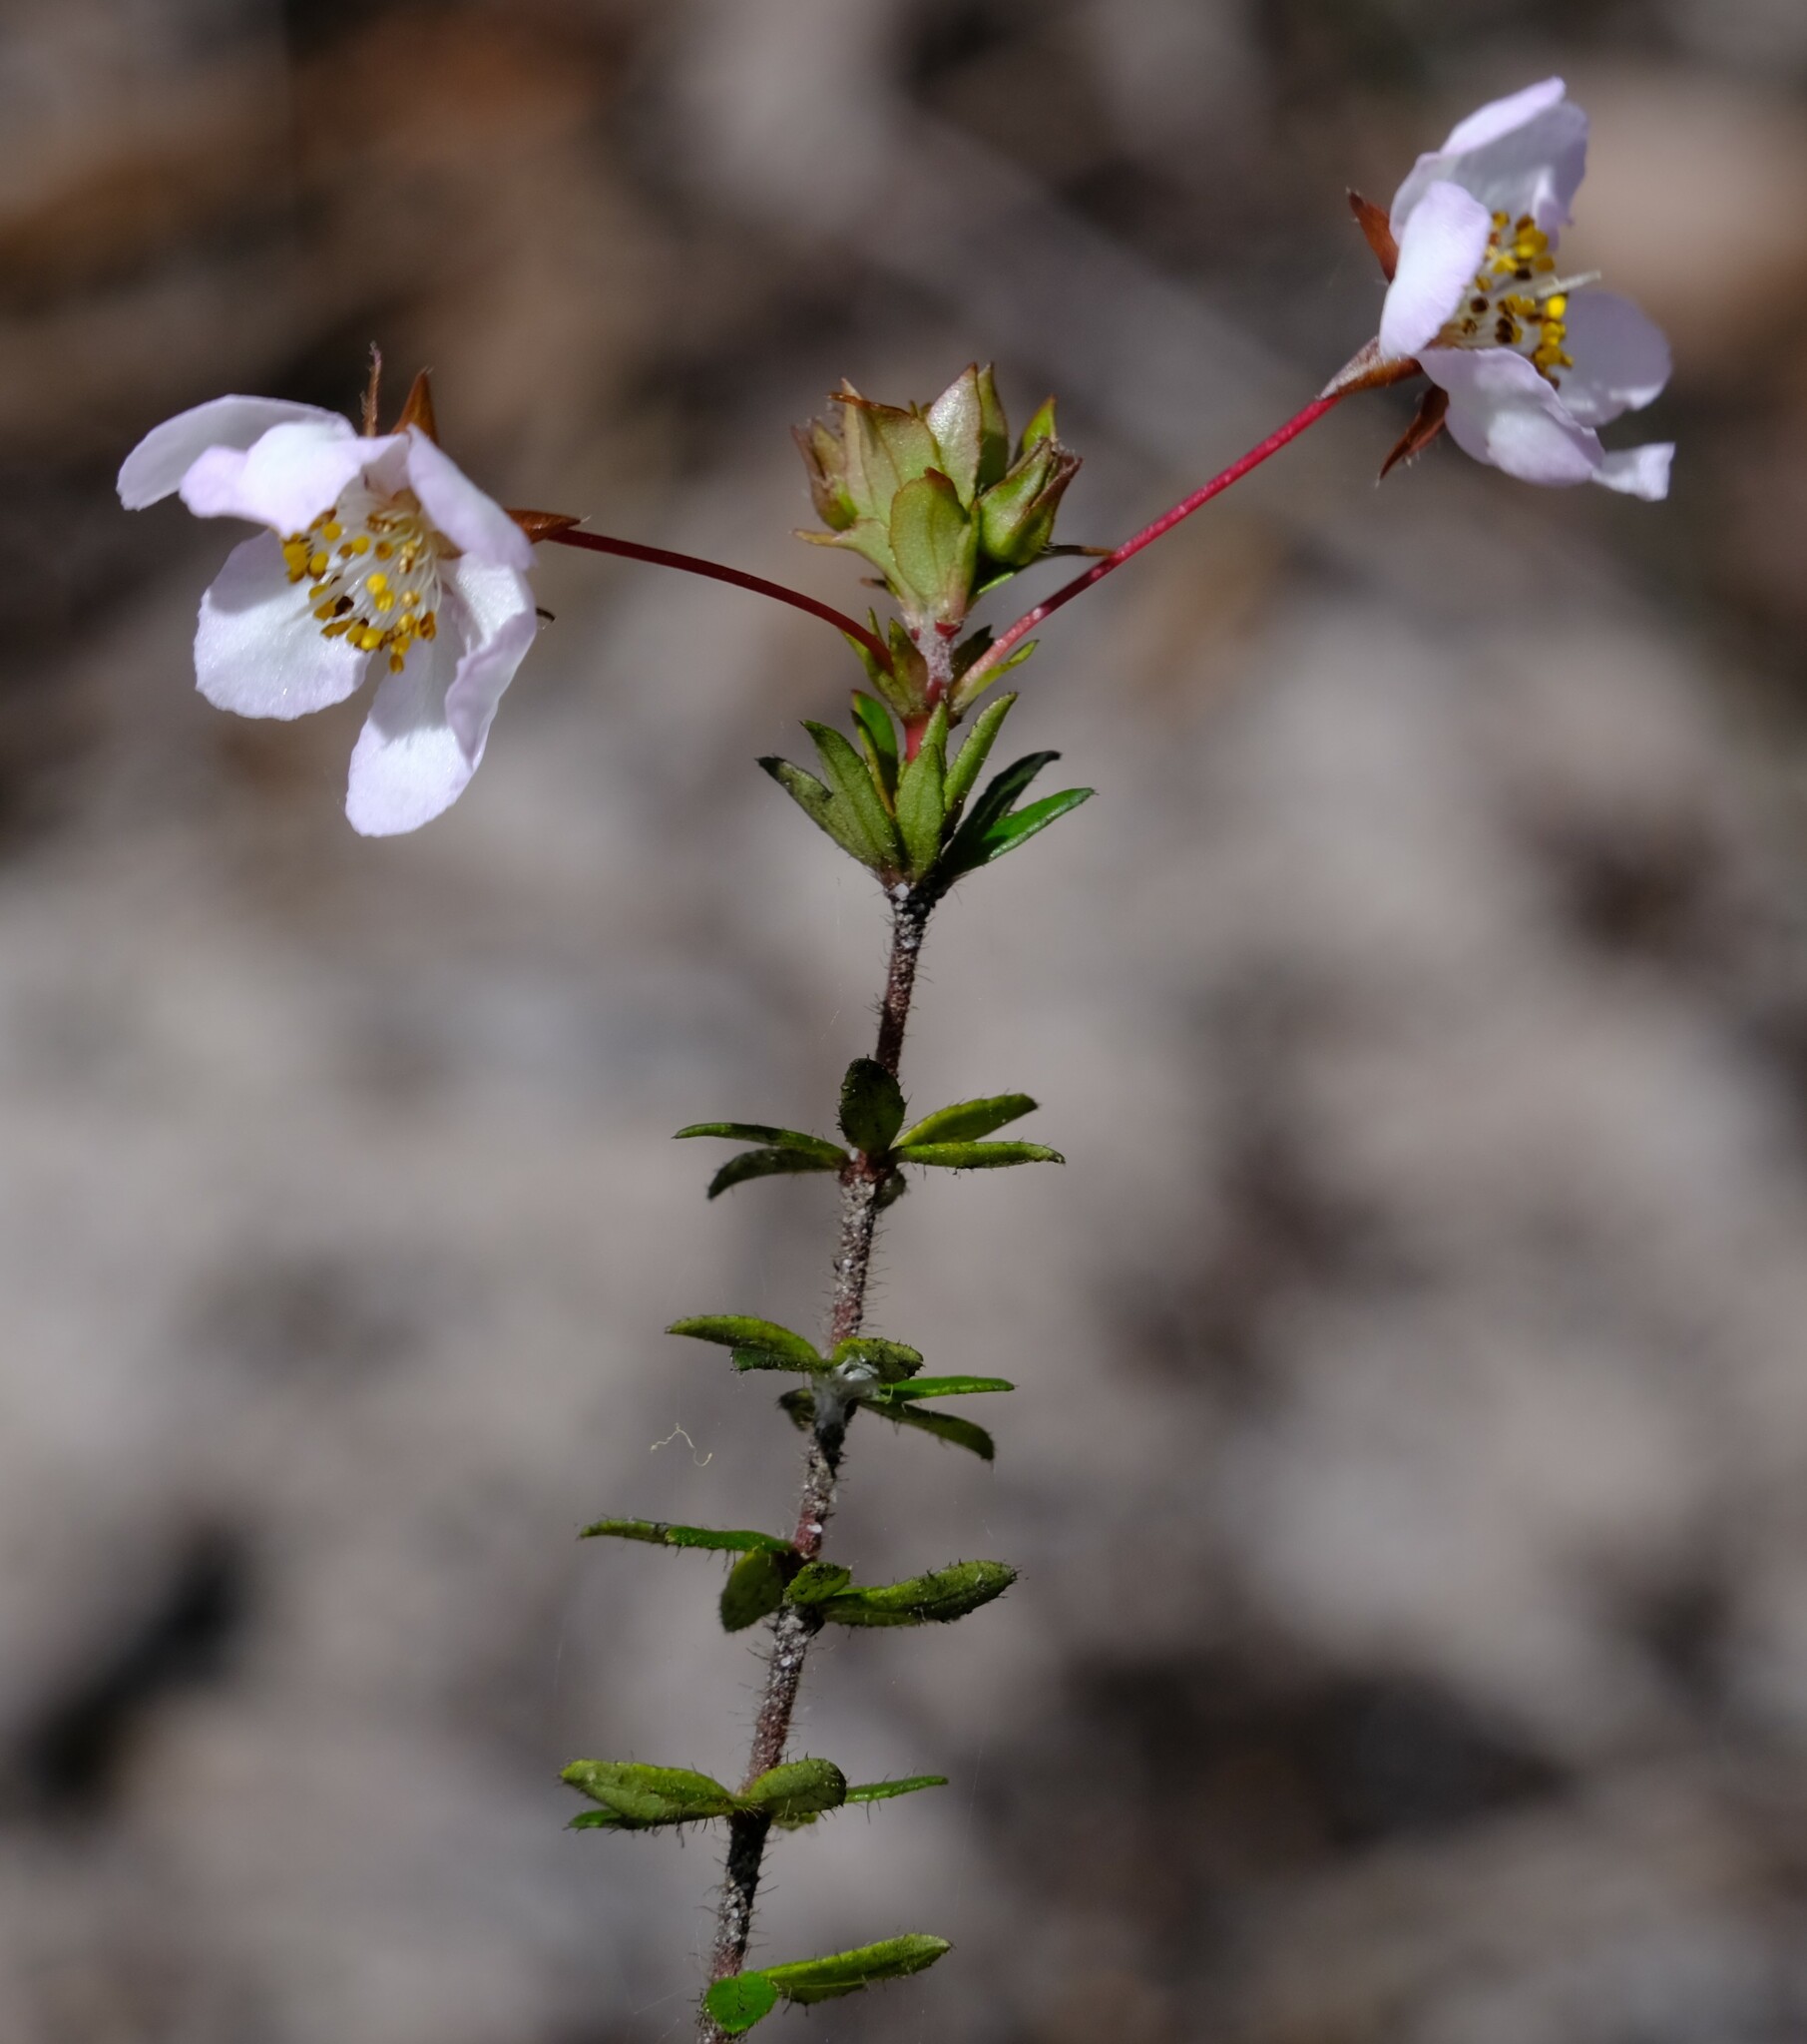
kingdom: Plantae
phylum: Tracheophyta
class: Magnoliopsida
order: Oxalidales
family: Cunoniaceae
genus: Bauera
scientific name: Bauera rubioides
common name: River-rose
